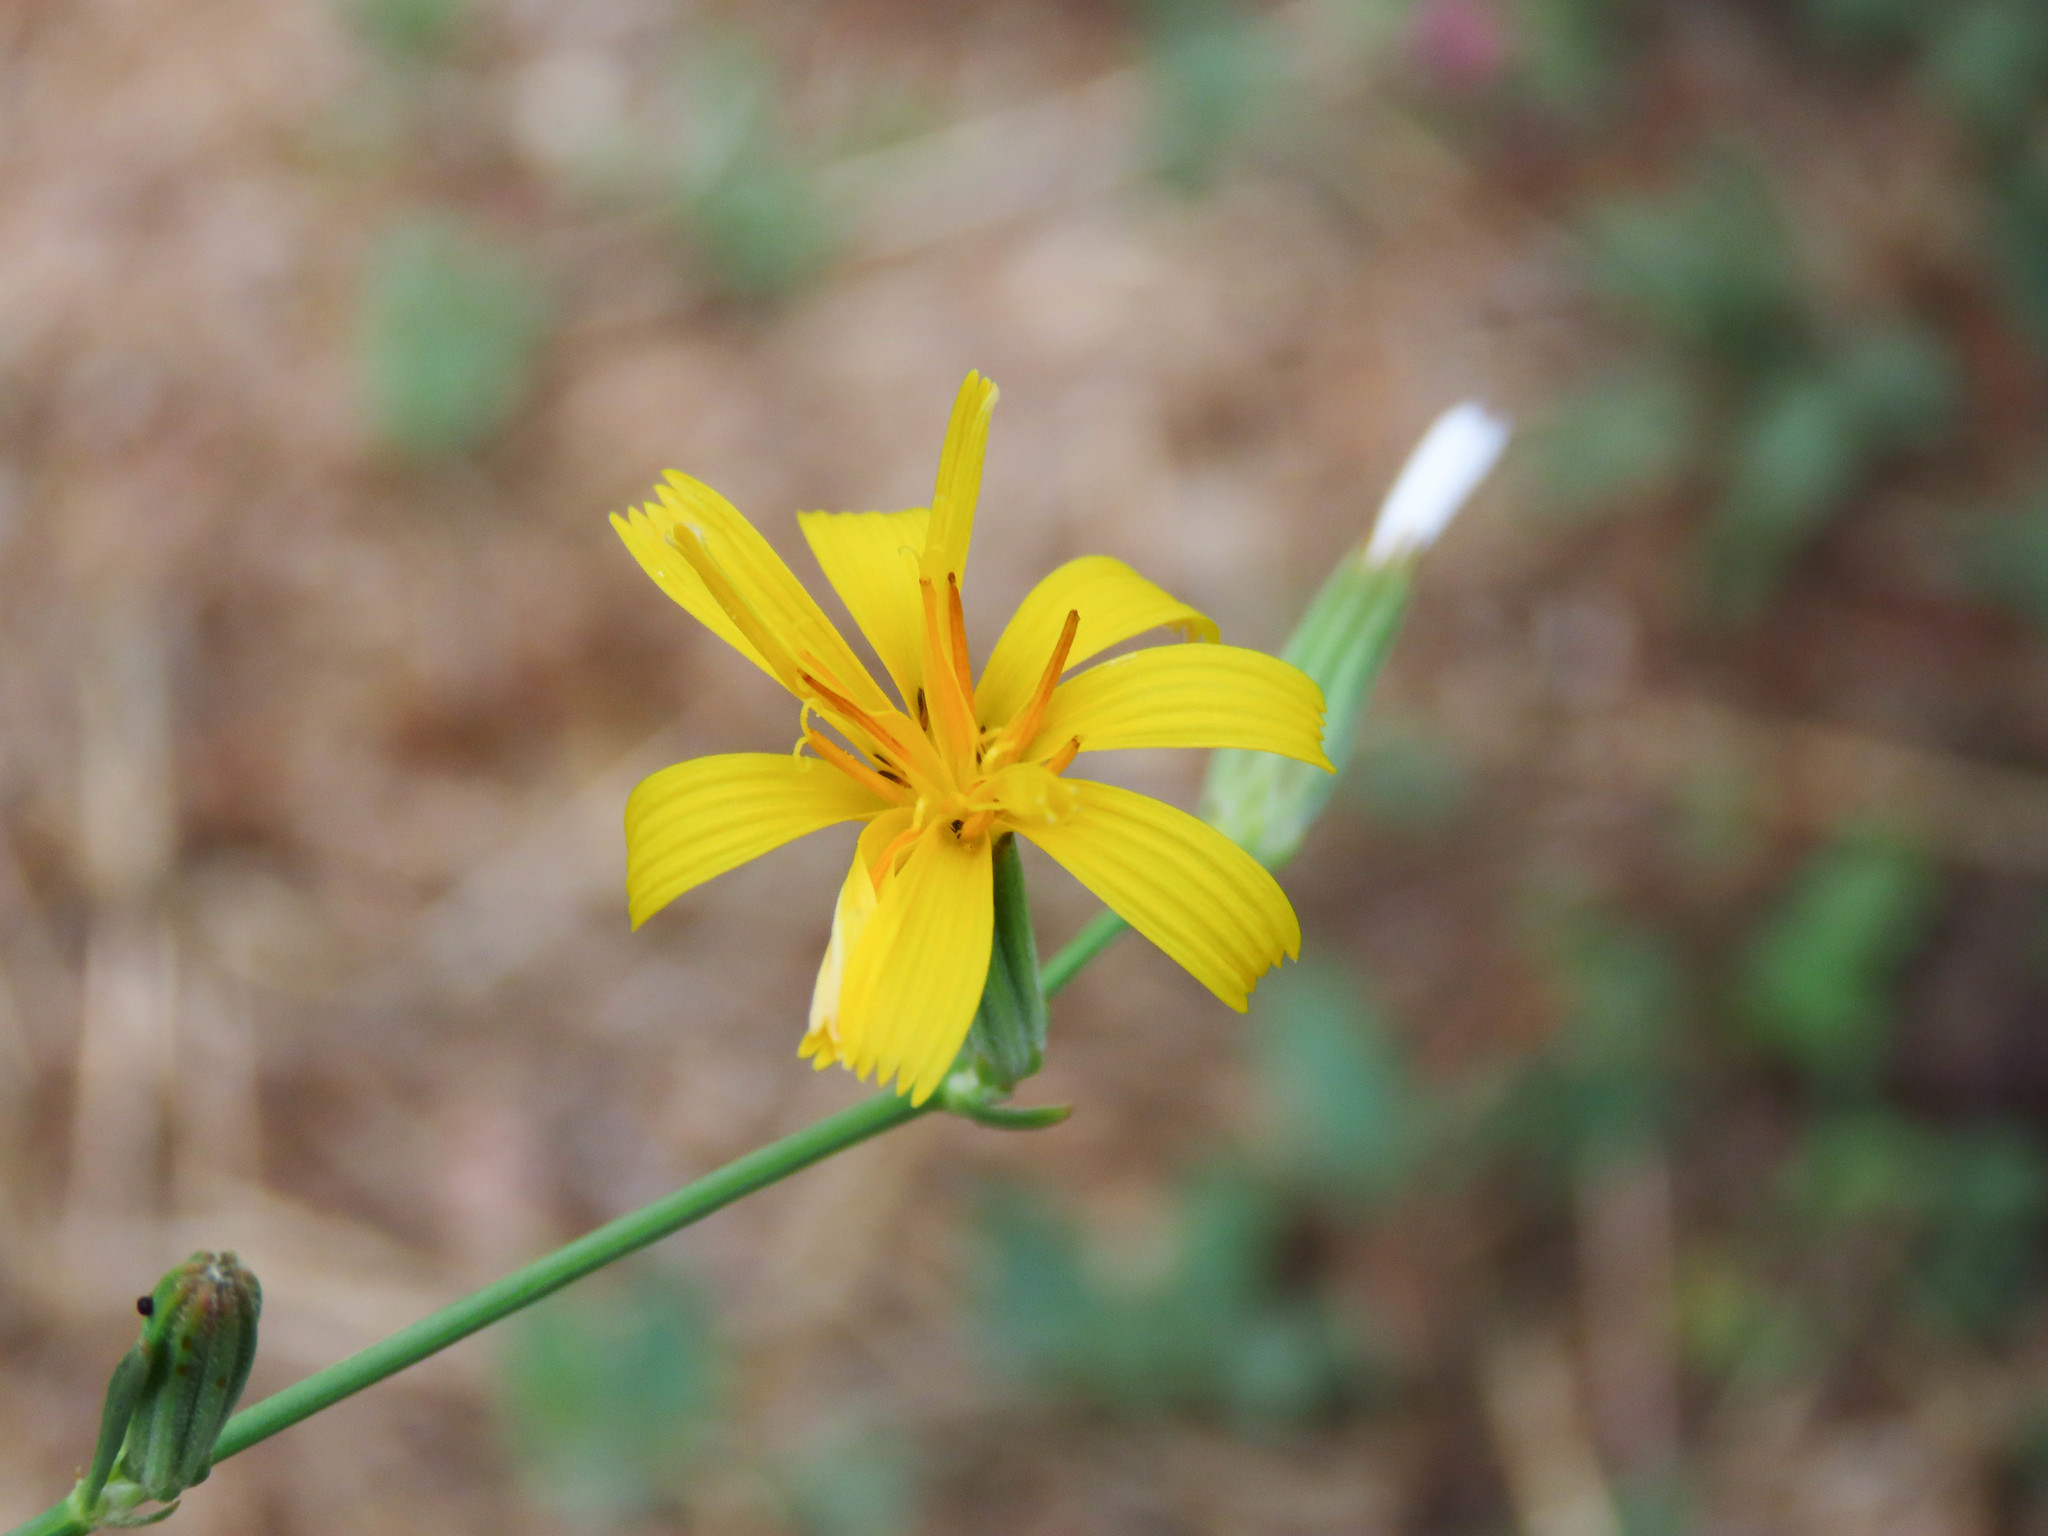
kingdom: Plantae
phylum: Tracheophyta
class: Magnoliopsida
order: Asterales
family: Asteraceae
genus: Chondrilla
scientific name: Chondrilla juncea
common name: Skeleton weed
